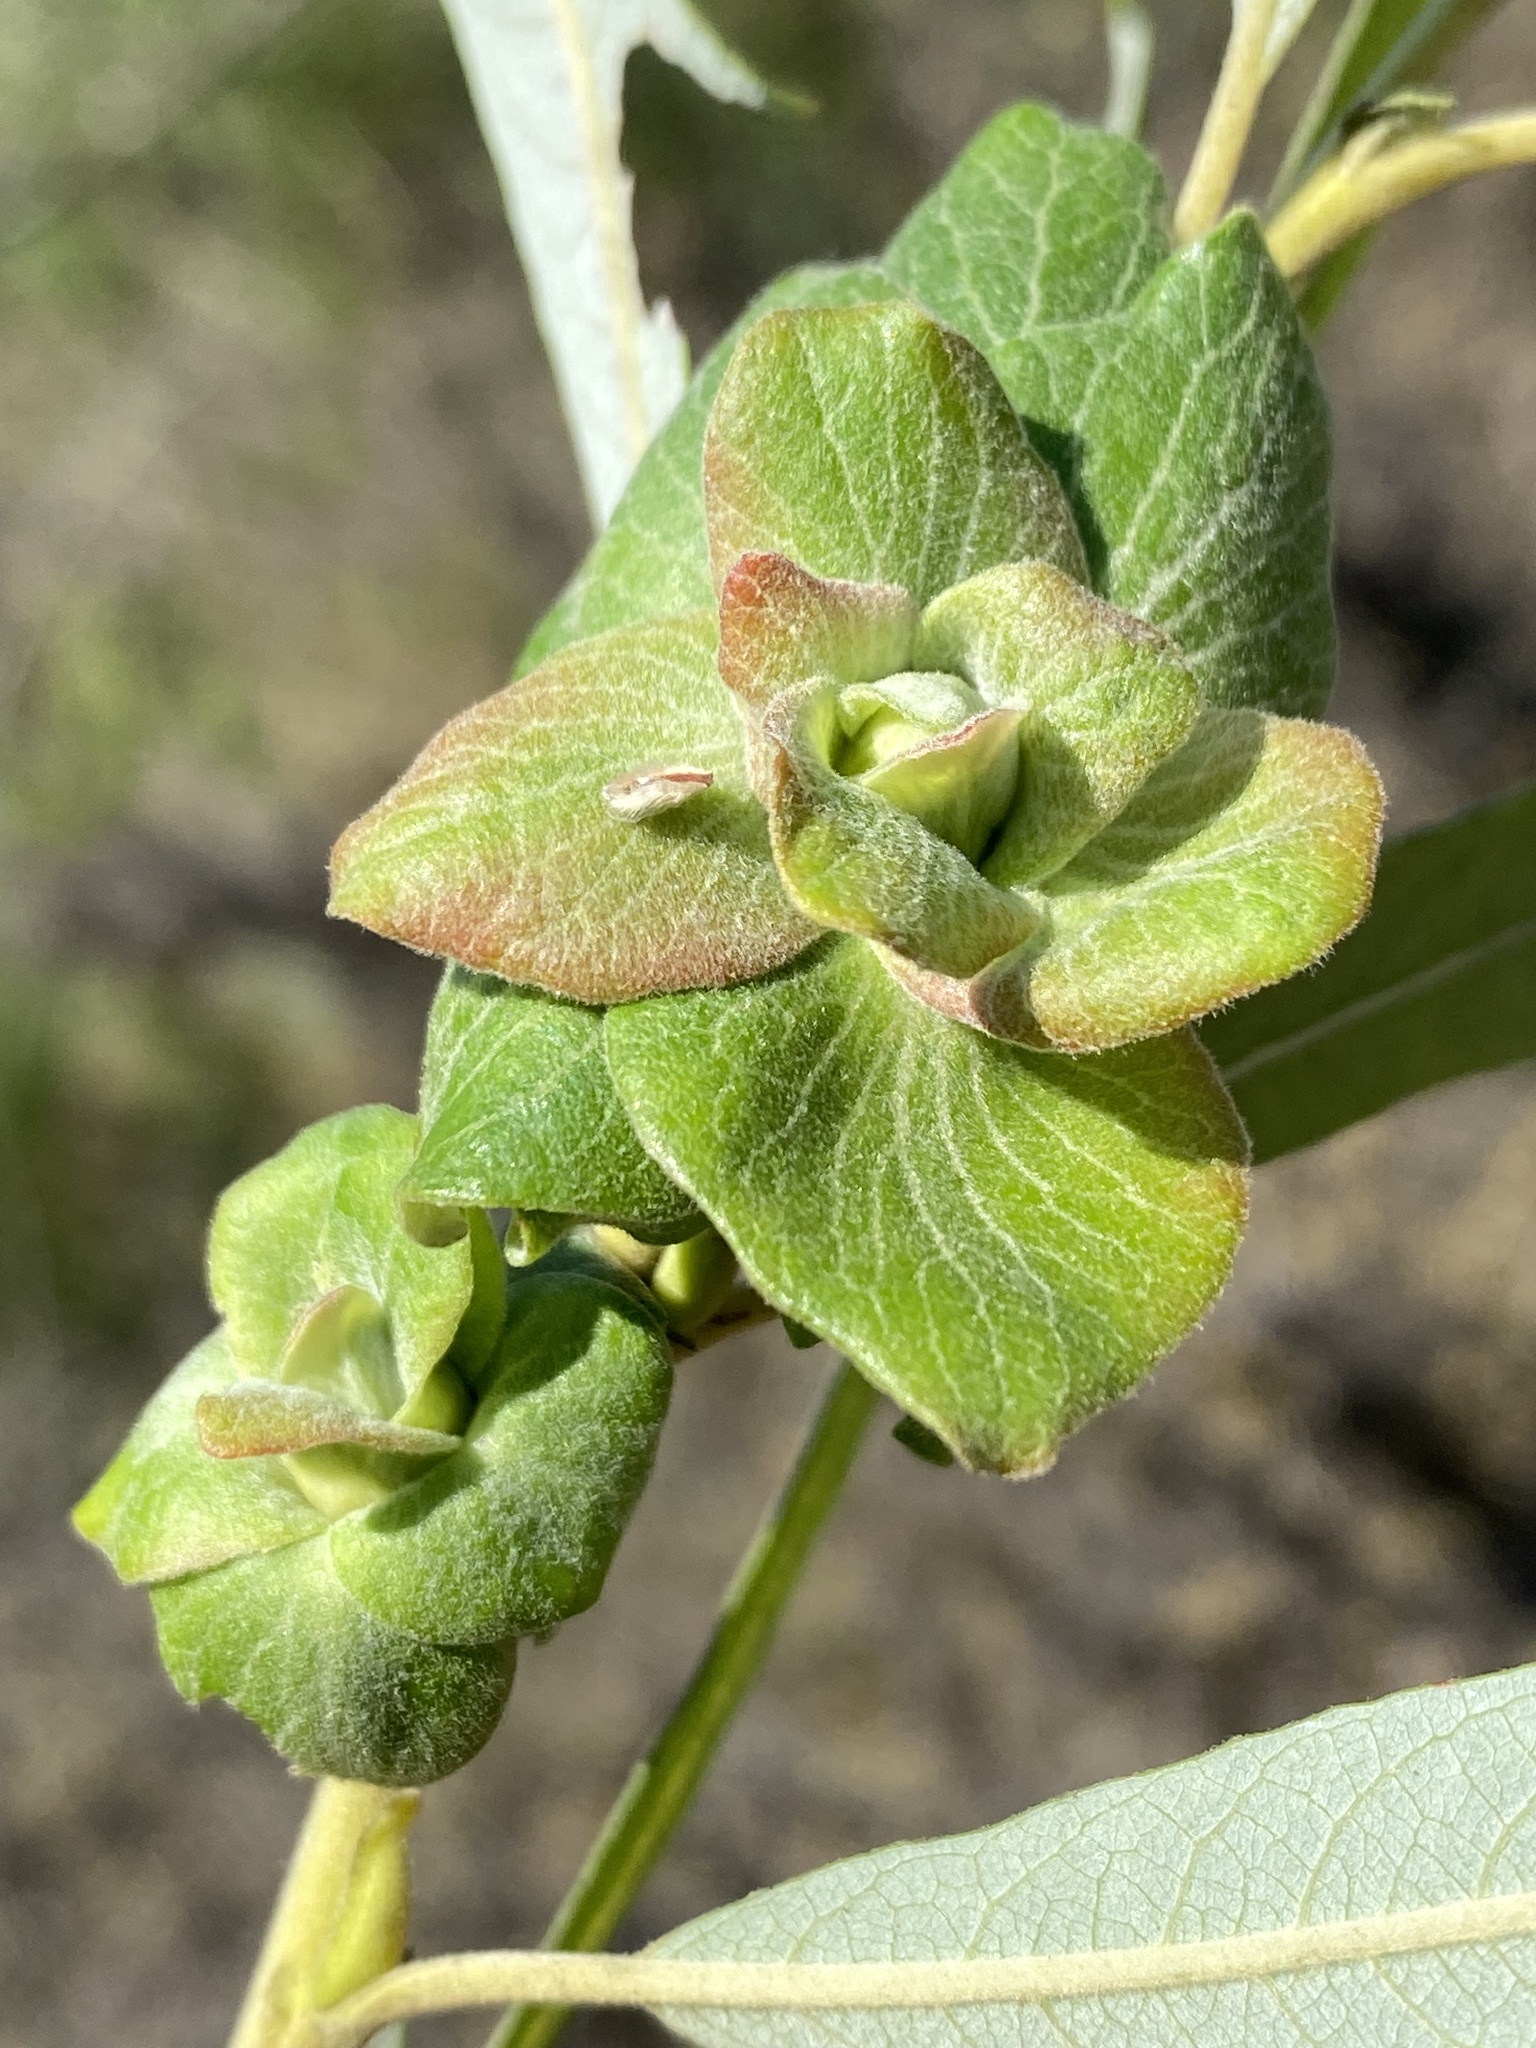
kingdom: Animalia
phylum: Arthropoda
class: Insecta
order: Diptera
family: Cecidomyiidae
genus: Rabdophaga
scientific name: Rabdophaga salicisbrassicoides
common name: Willow cabbagegall midge
